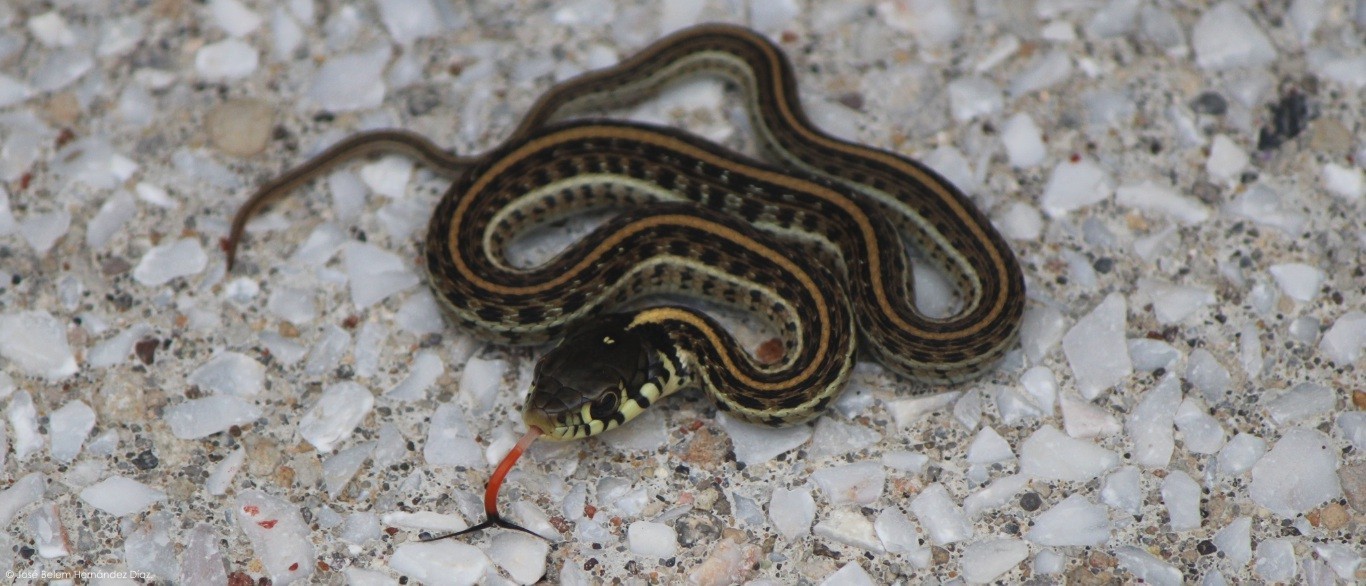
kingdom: Animalia
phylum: Chordata
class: Squamata
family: Colubridae
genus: Thamnophis
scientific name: Thamnophis eques
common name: Mexican garter snake
